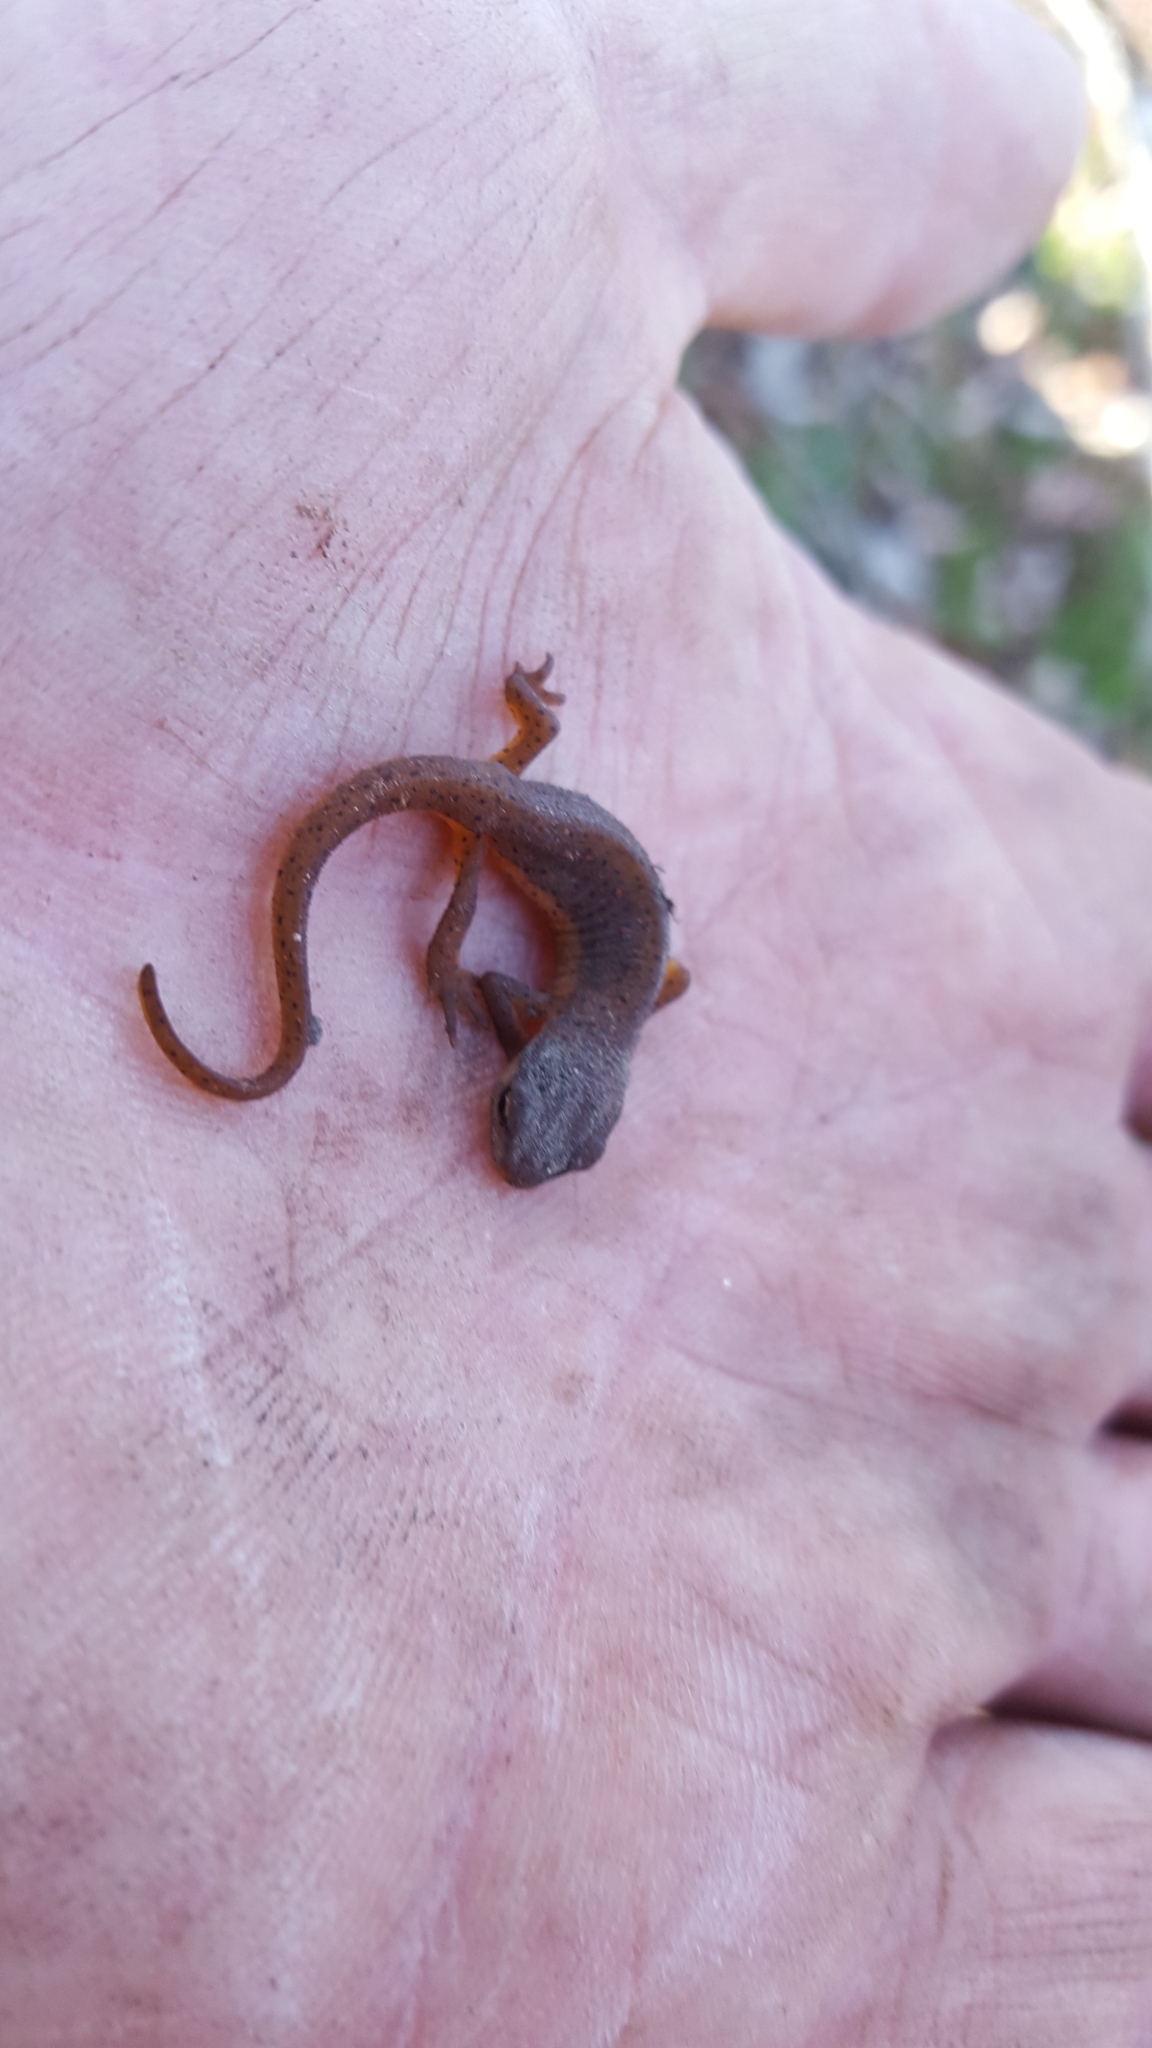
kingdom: Animalia
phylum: Chordata
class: Amphibia
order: Caudata
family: Salamandridae
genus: Notophthalmus
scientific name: Notophthalmus viridescens
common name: Eastern newt
